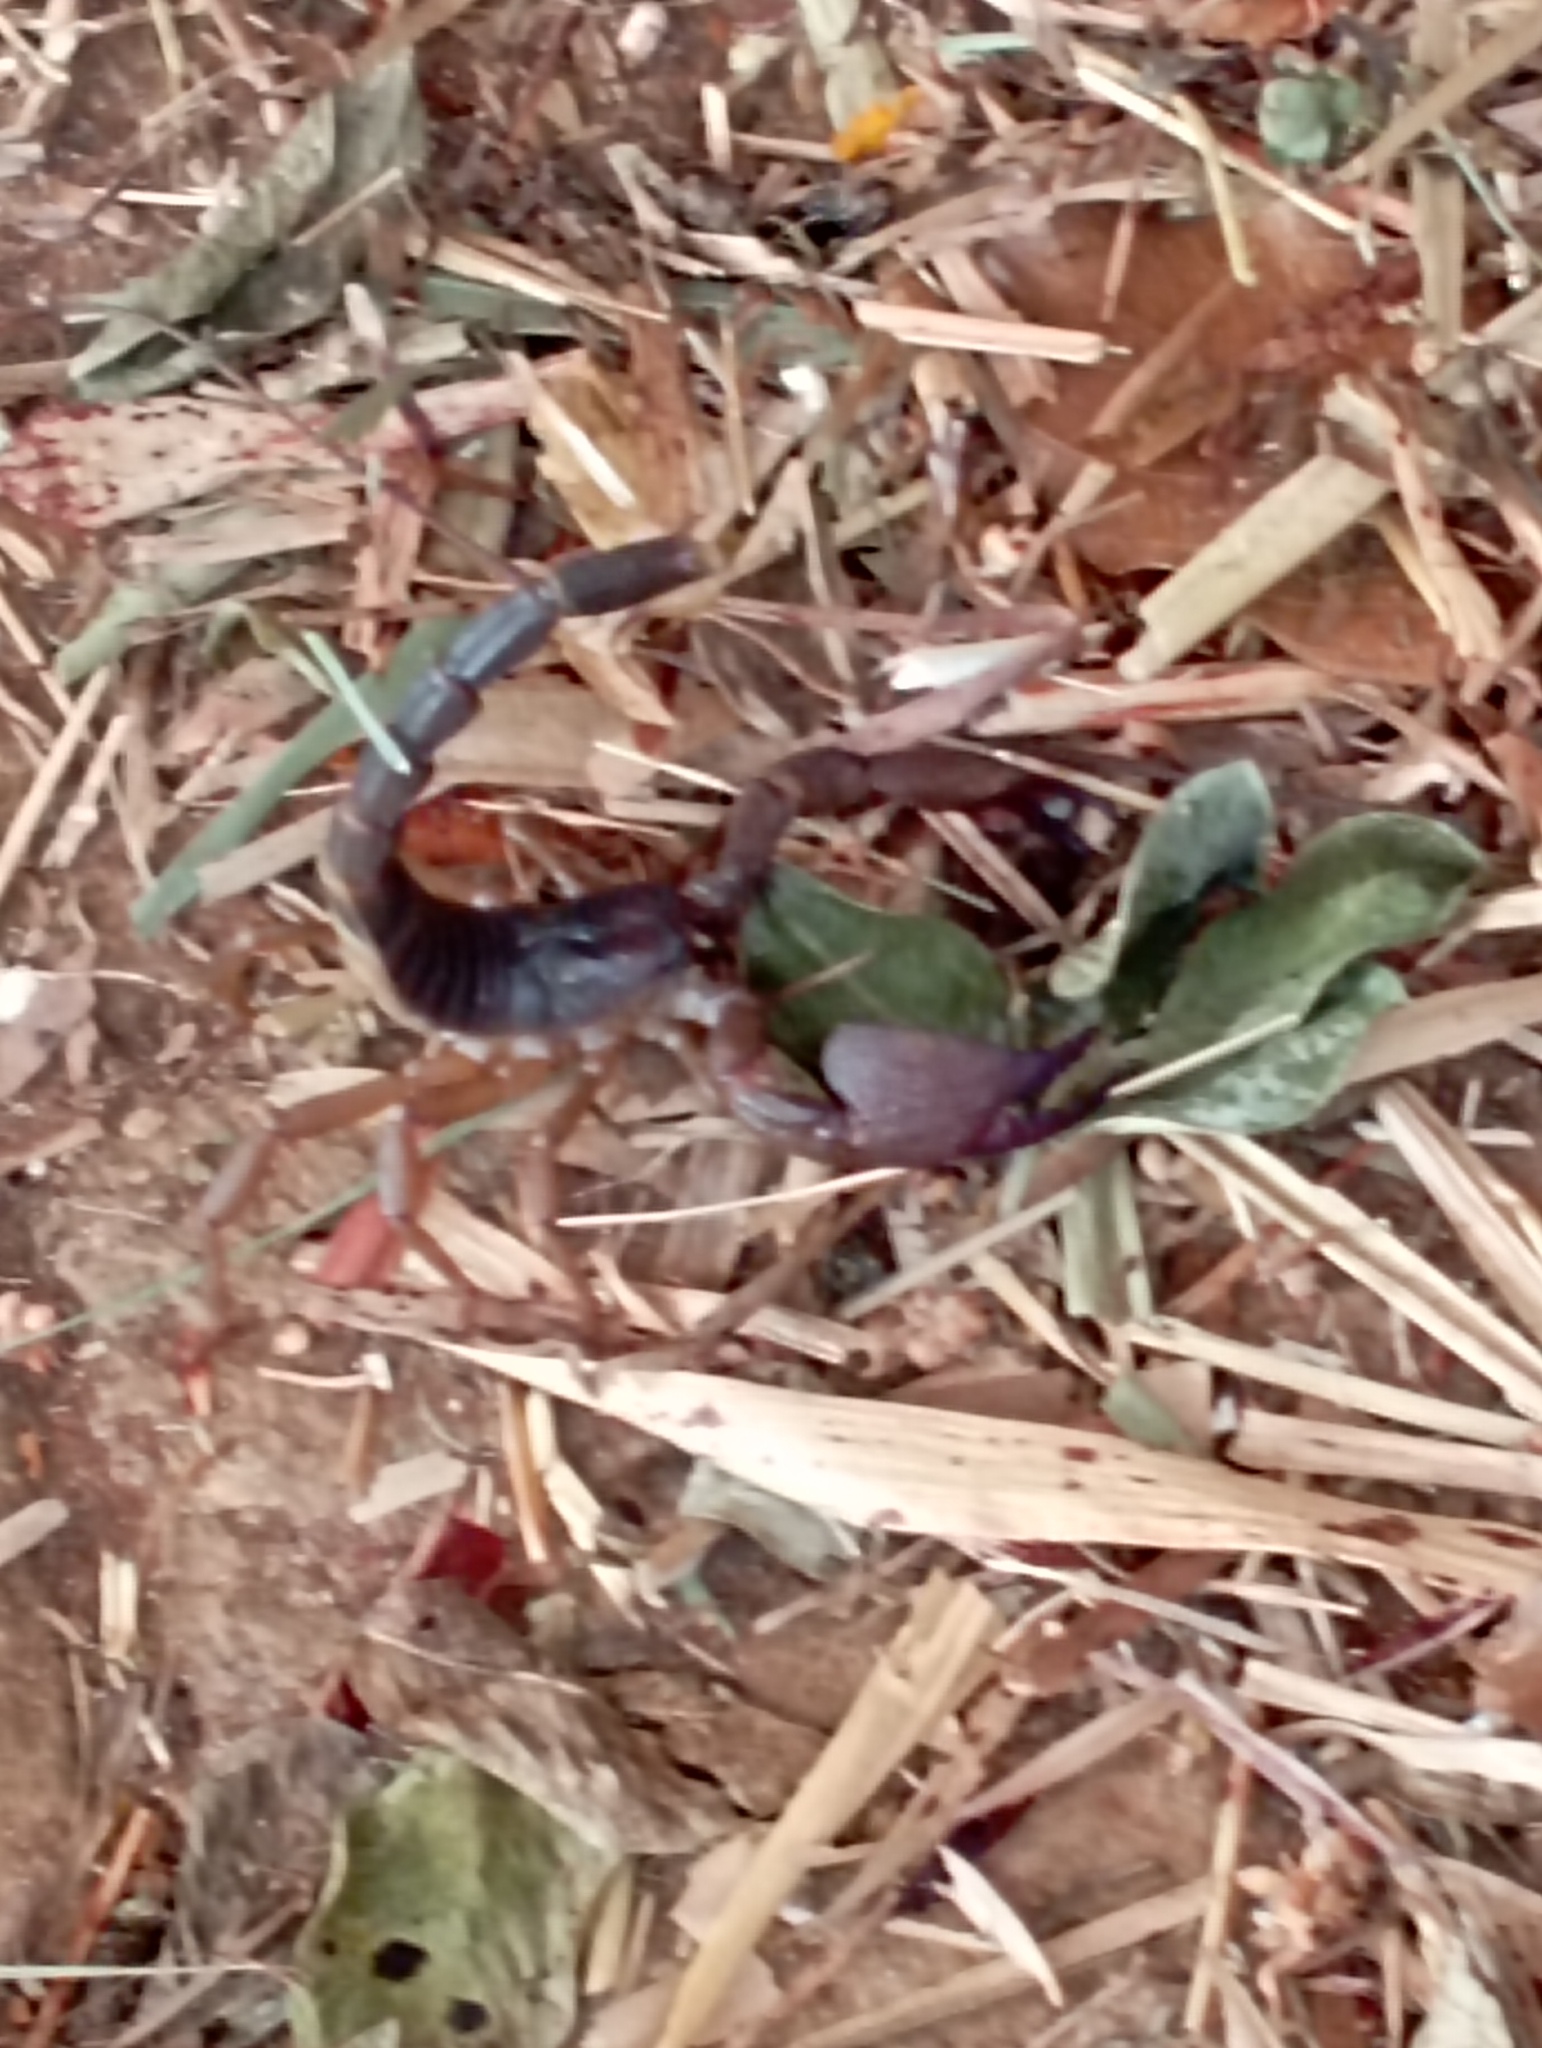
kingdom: Animalia
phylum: Arthropoda
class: Arachnida
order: Scorpiones
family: Scorpionidae
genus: Gigantometrus
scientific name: Gigantometrus swammerdami
